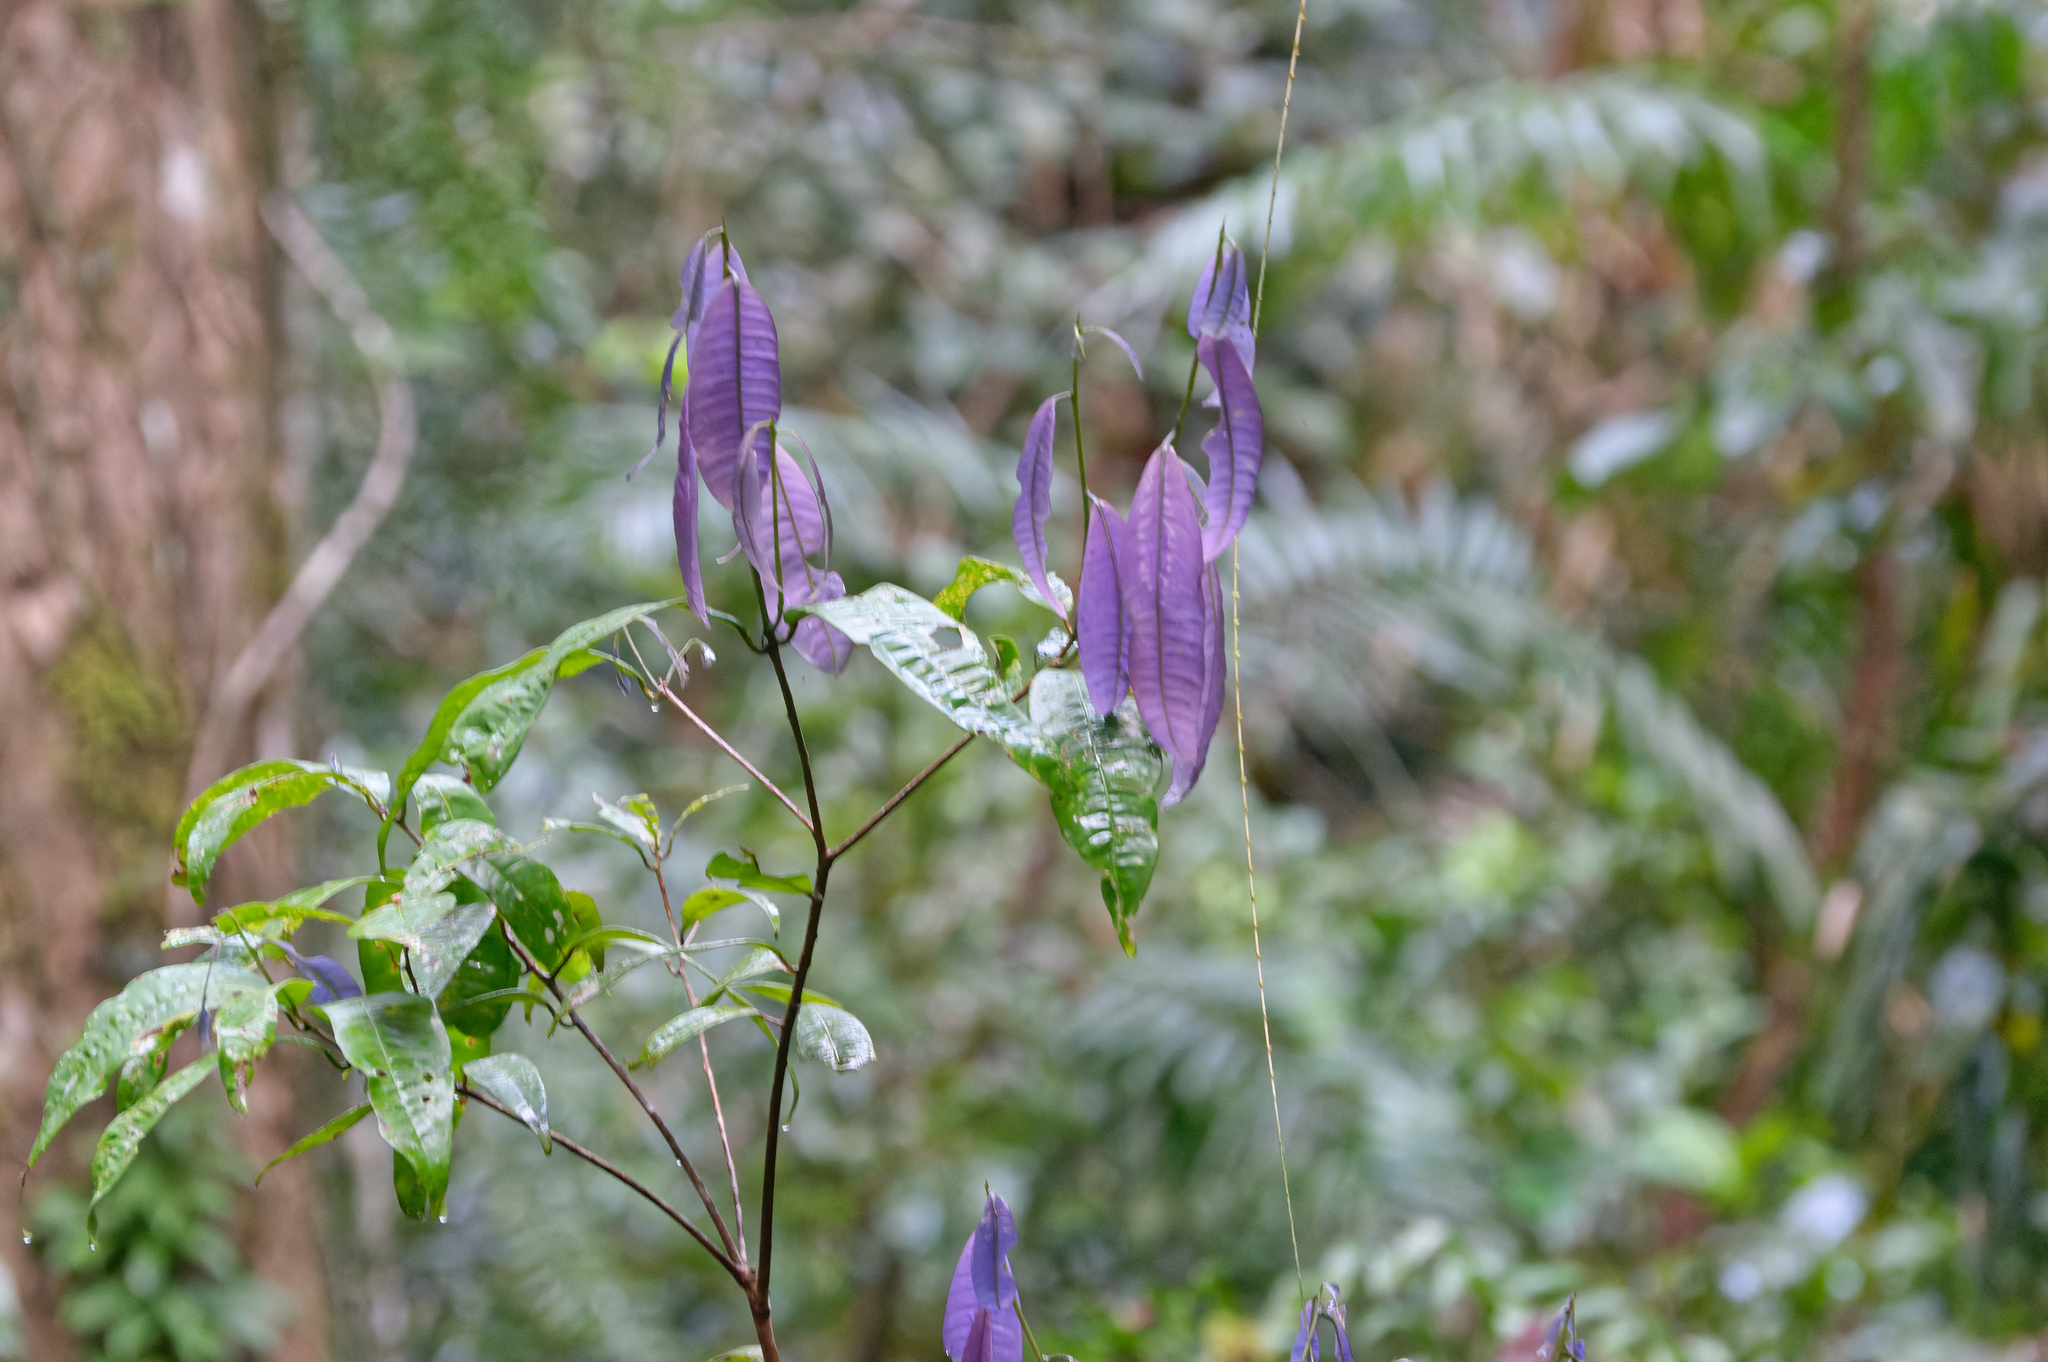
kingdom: Plantae
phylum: Tracheophyta
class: Magnoliopsida
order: Myrtales
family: Myrtaceae
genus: Lindsayomyrtus
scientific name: Lindsayomyrtus racemoides
